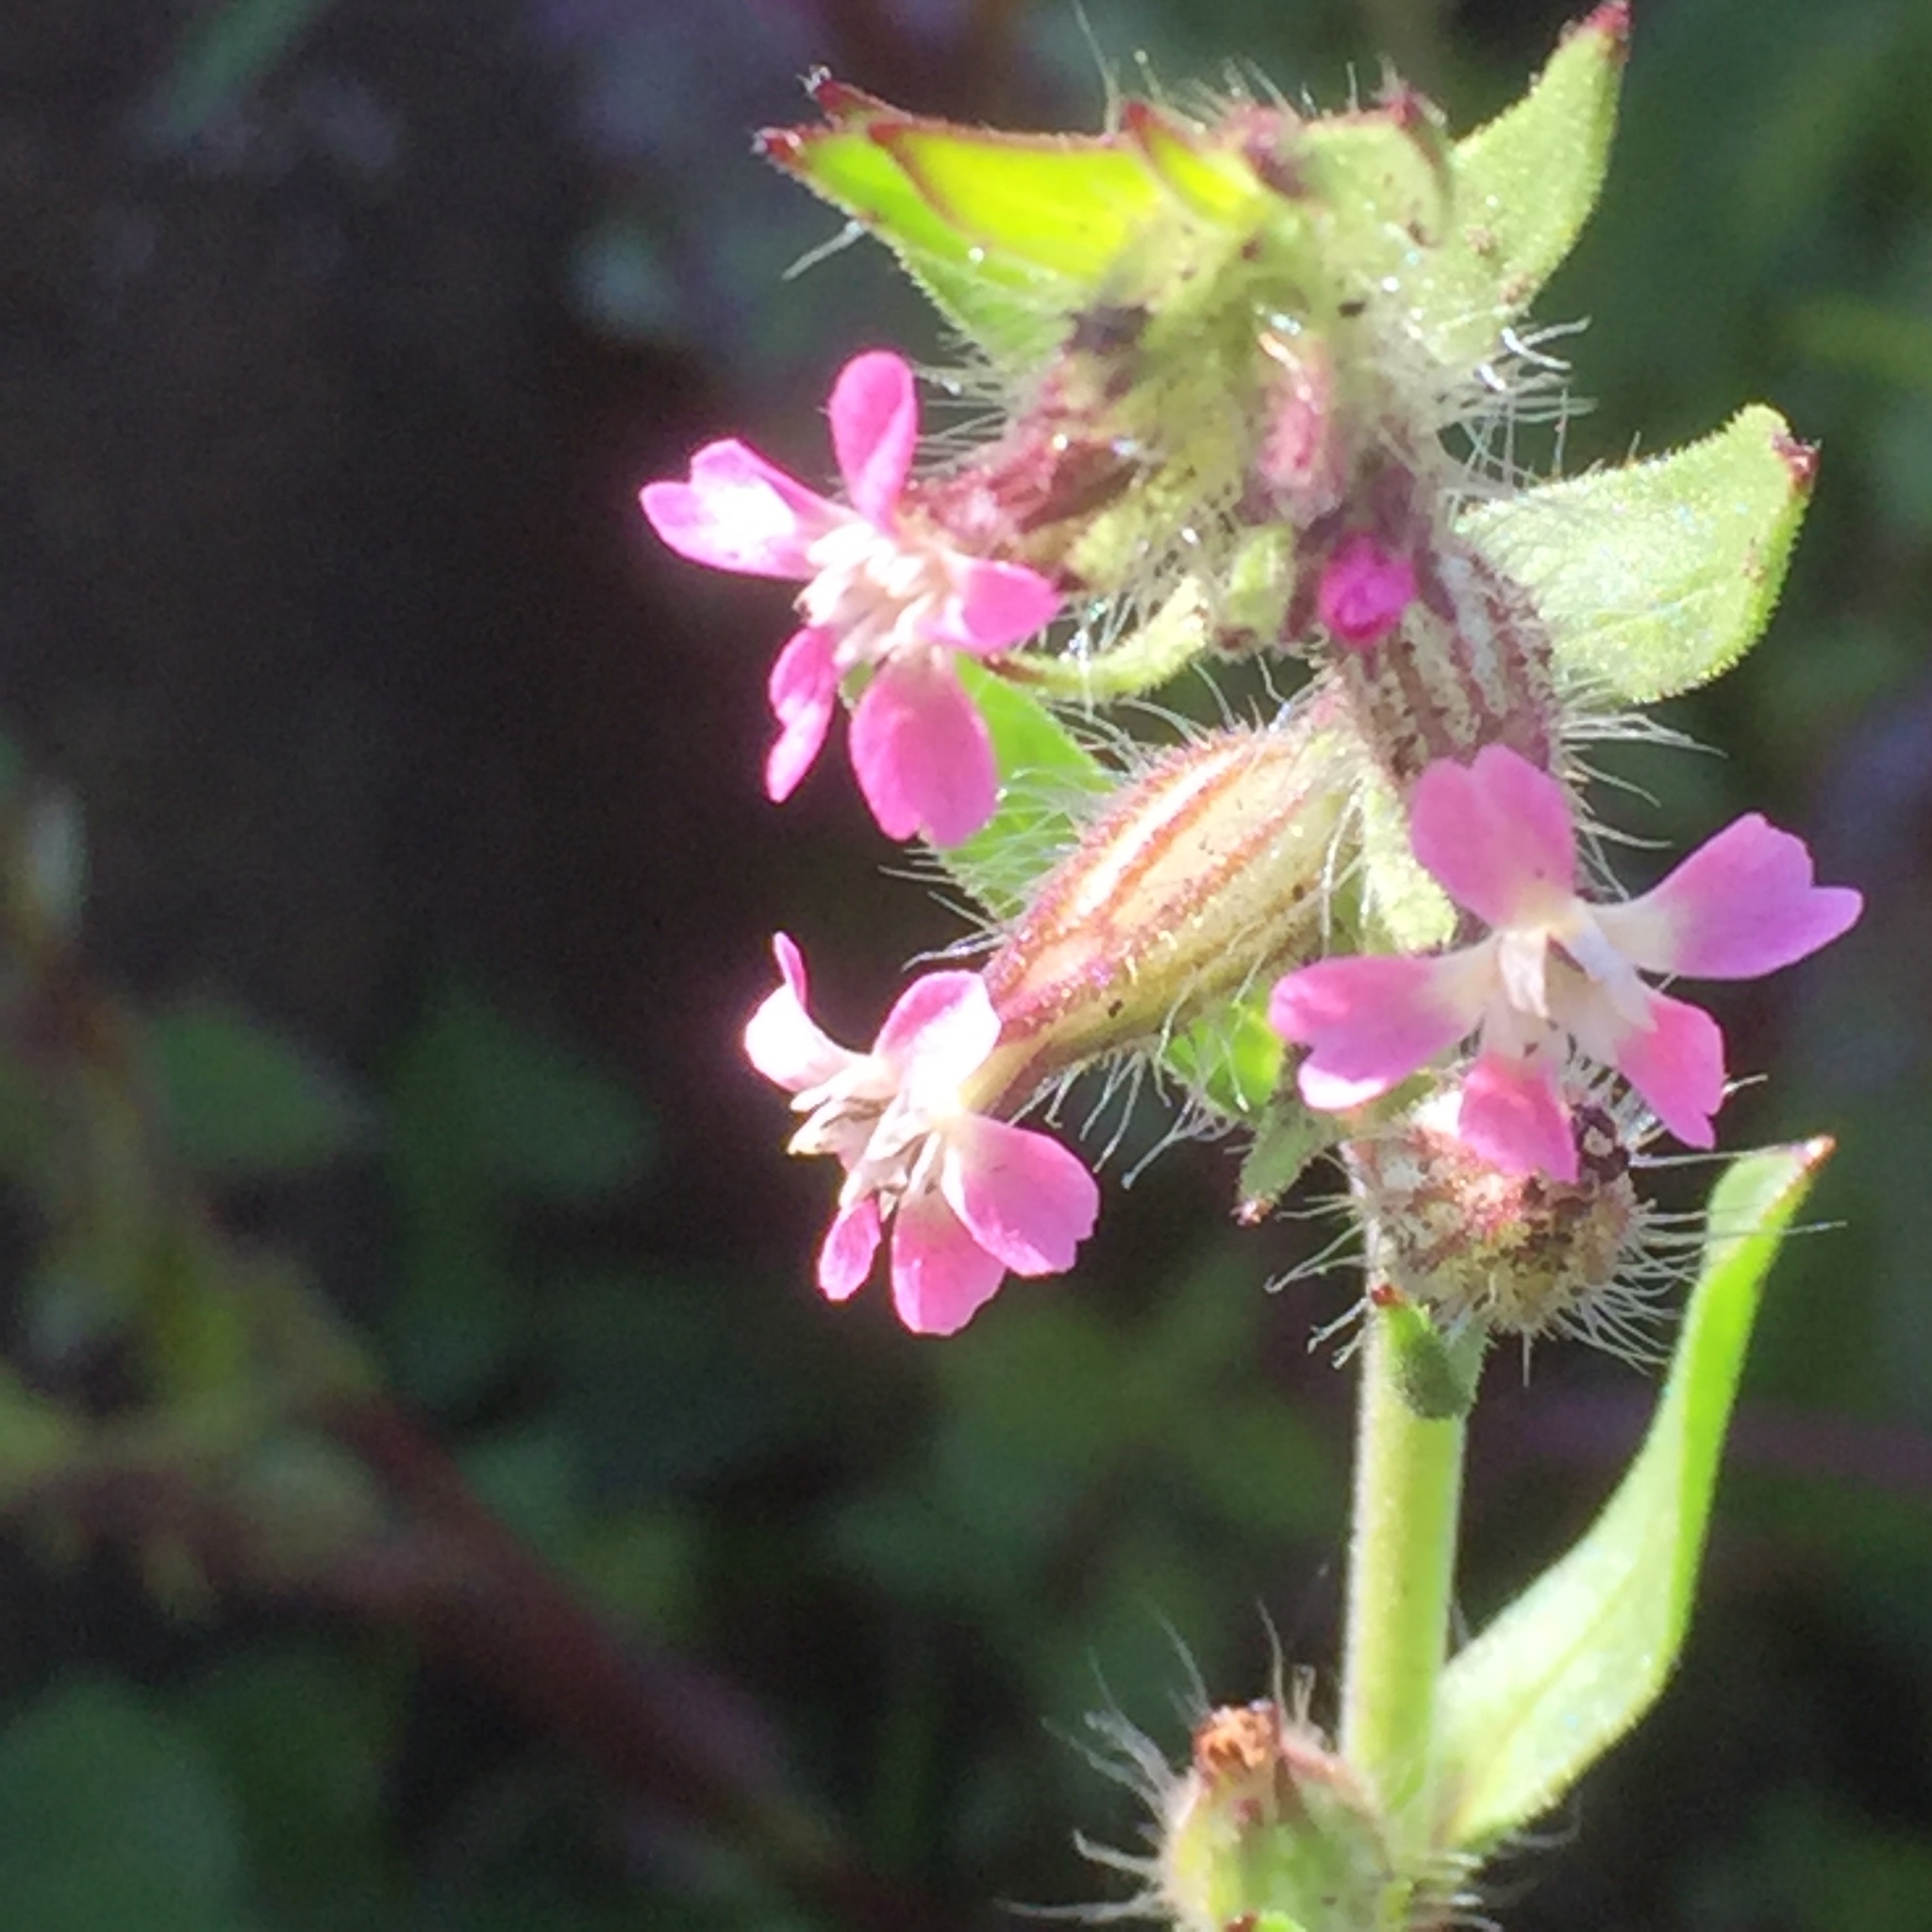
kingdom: Plantae
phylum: Tracheophyta
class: Magnoliopsida
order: Caryophyllales
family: Caryophyllaceae
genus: Silene
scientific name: Silene gallica
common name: Small-flowered catchfly
